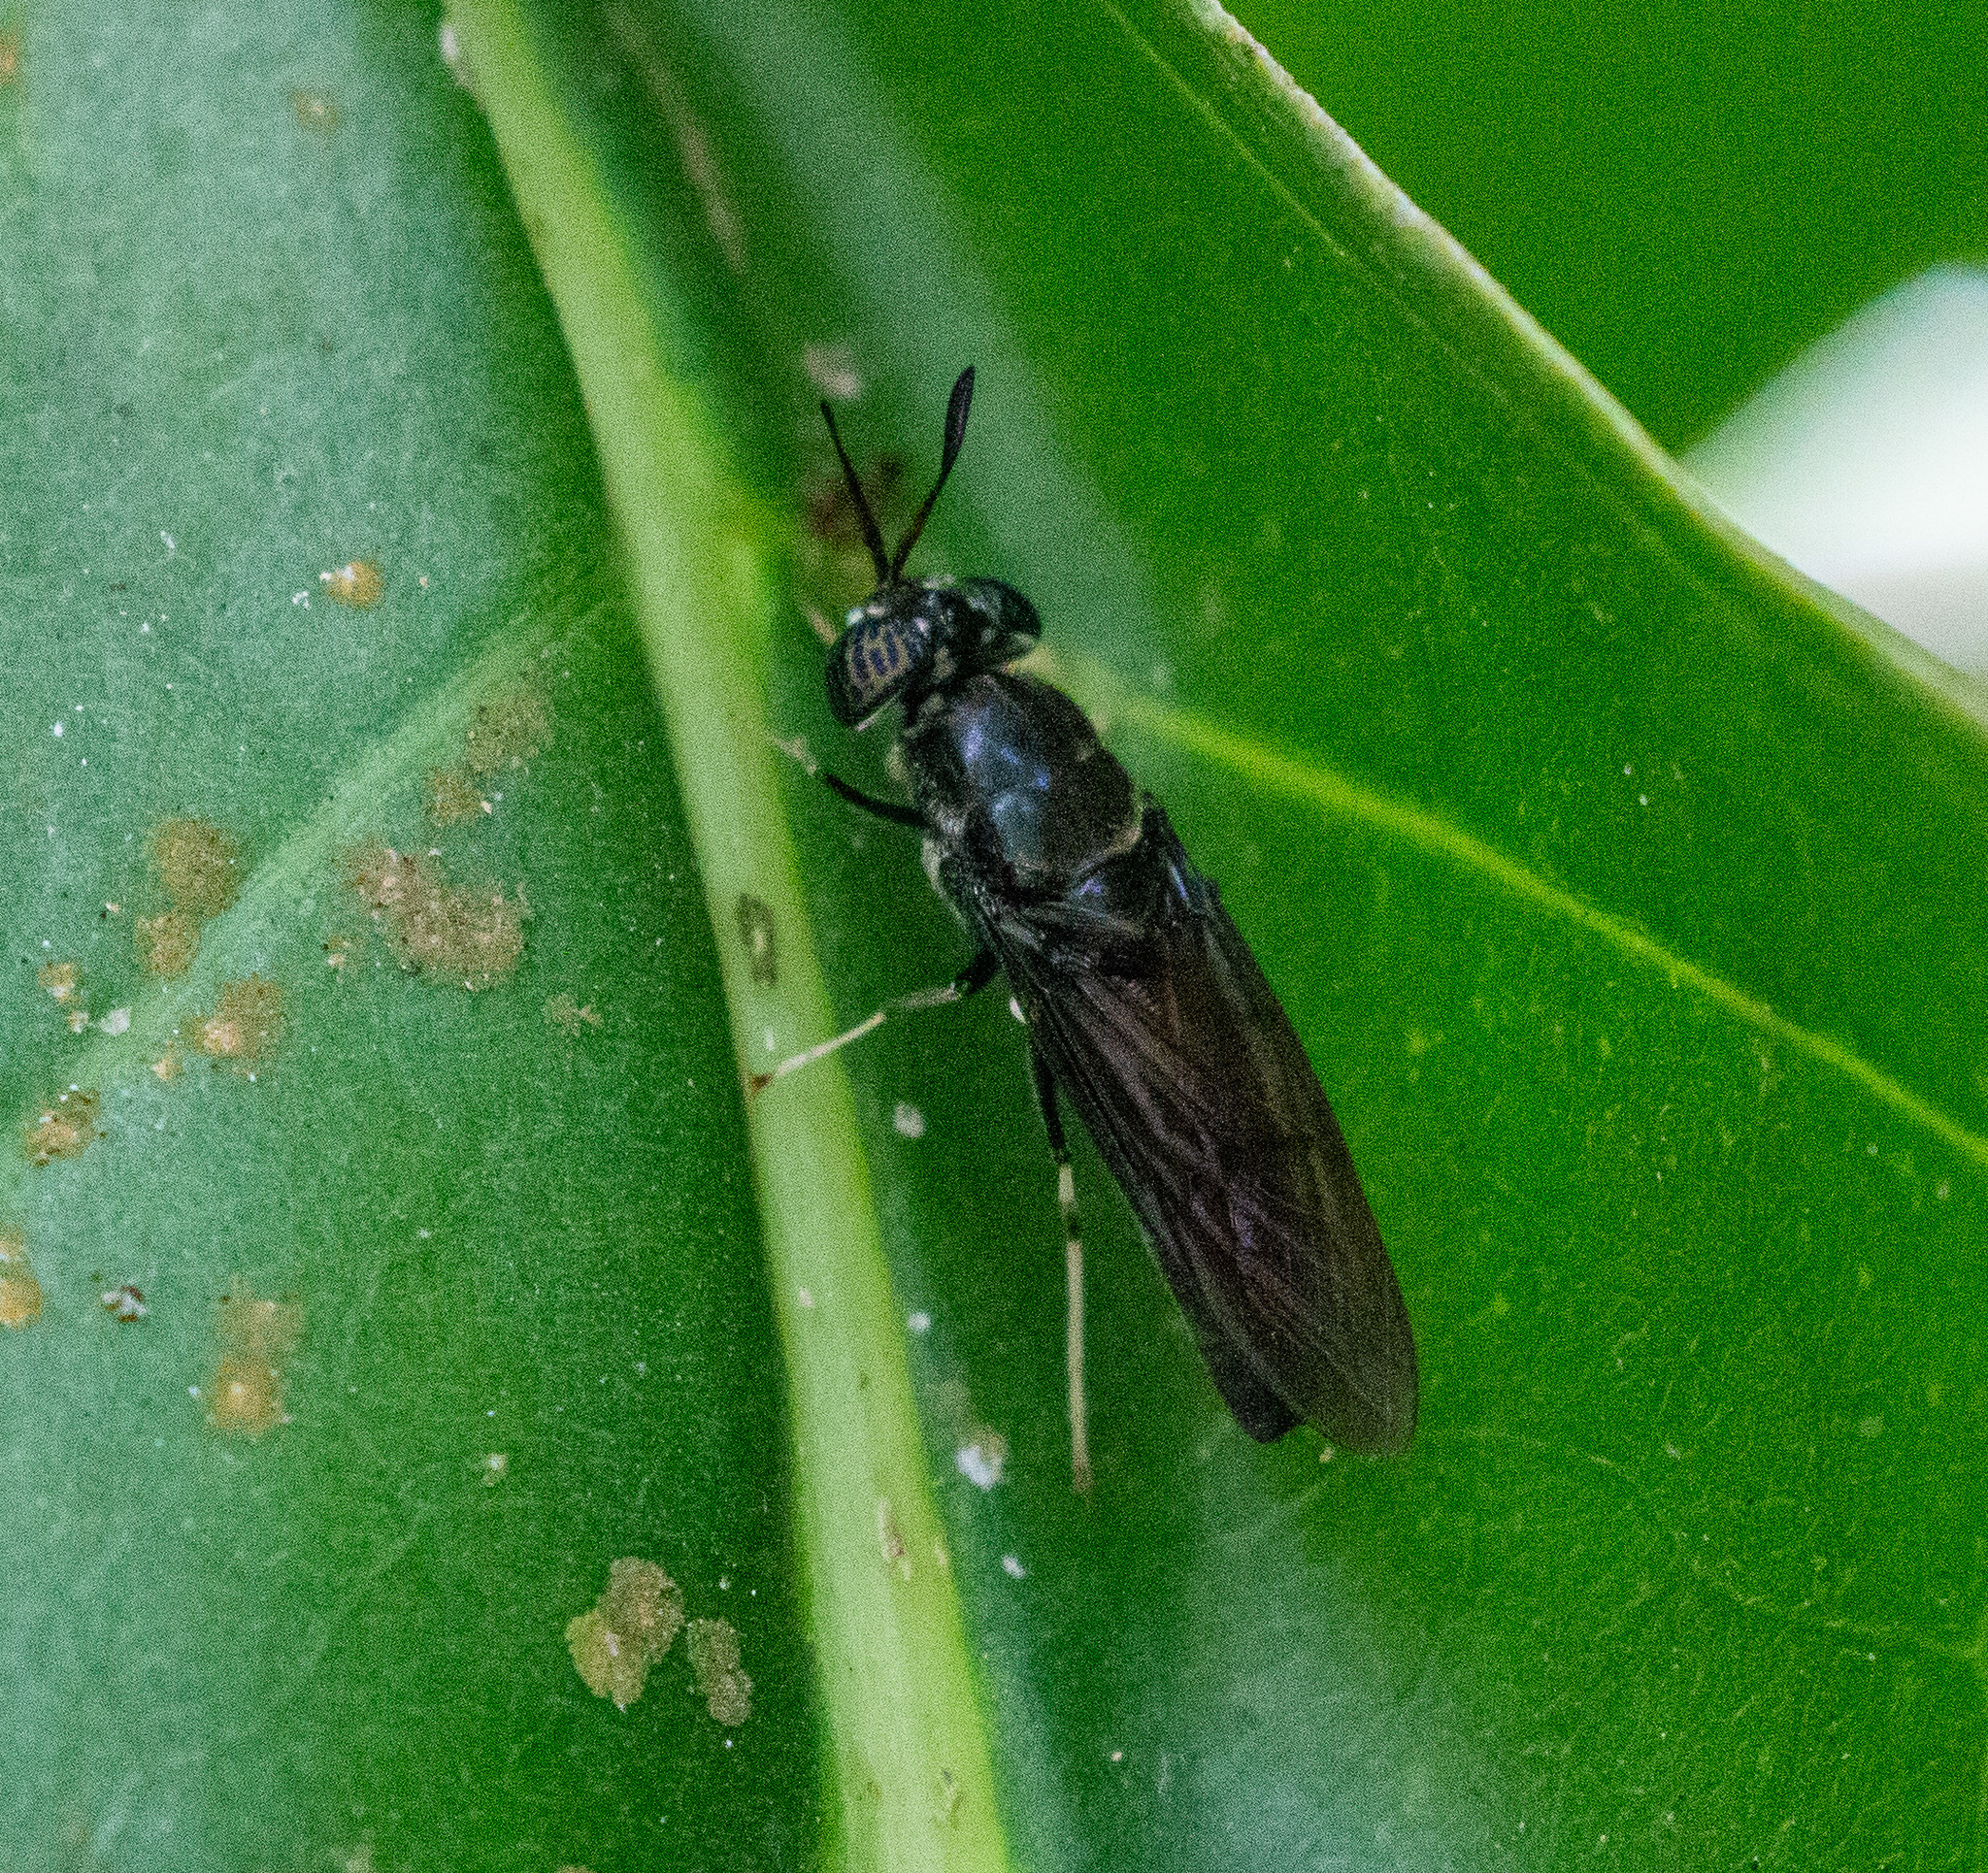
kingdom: Animalia
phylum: Arthropoda
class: Insecta
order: Diptera
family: Stratiomyidae
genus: Hermetia
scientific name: Hermetia illucens
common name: Black soldier fly
